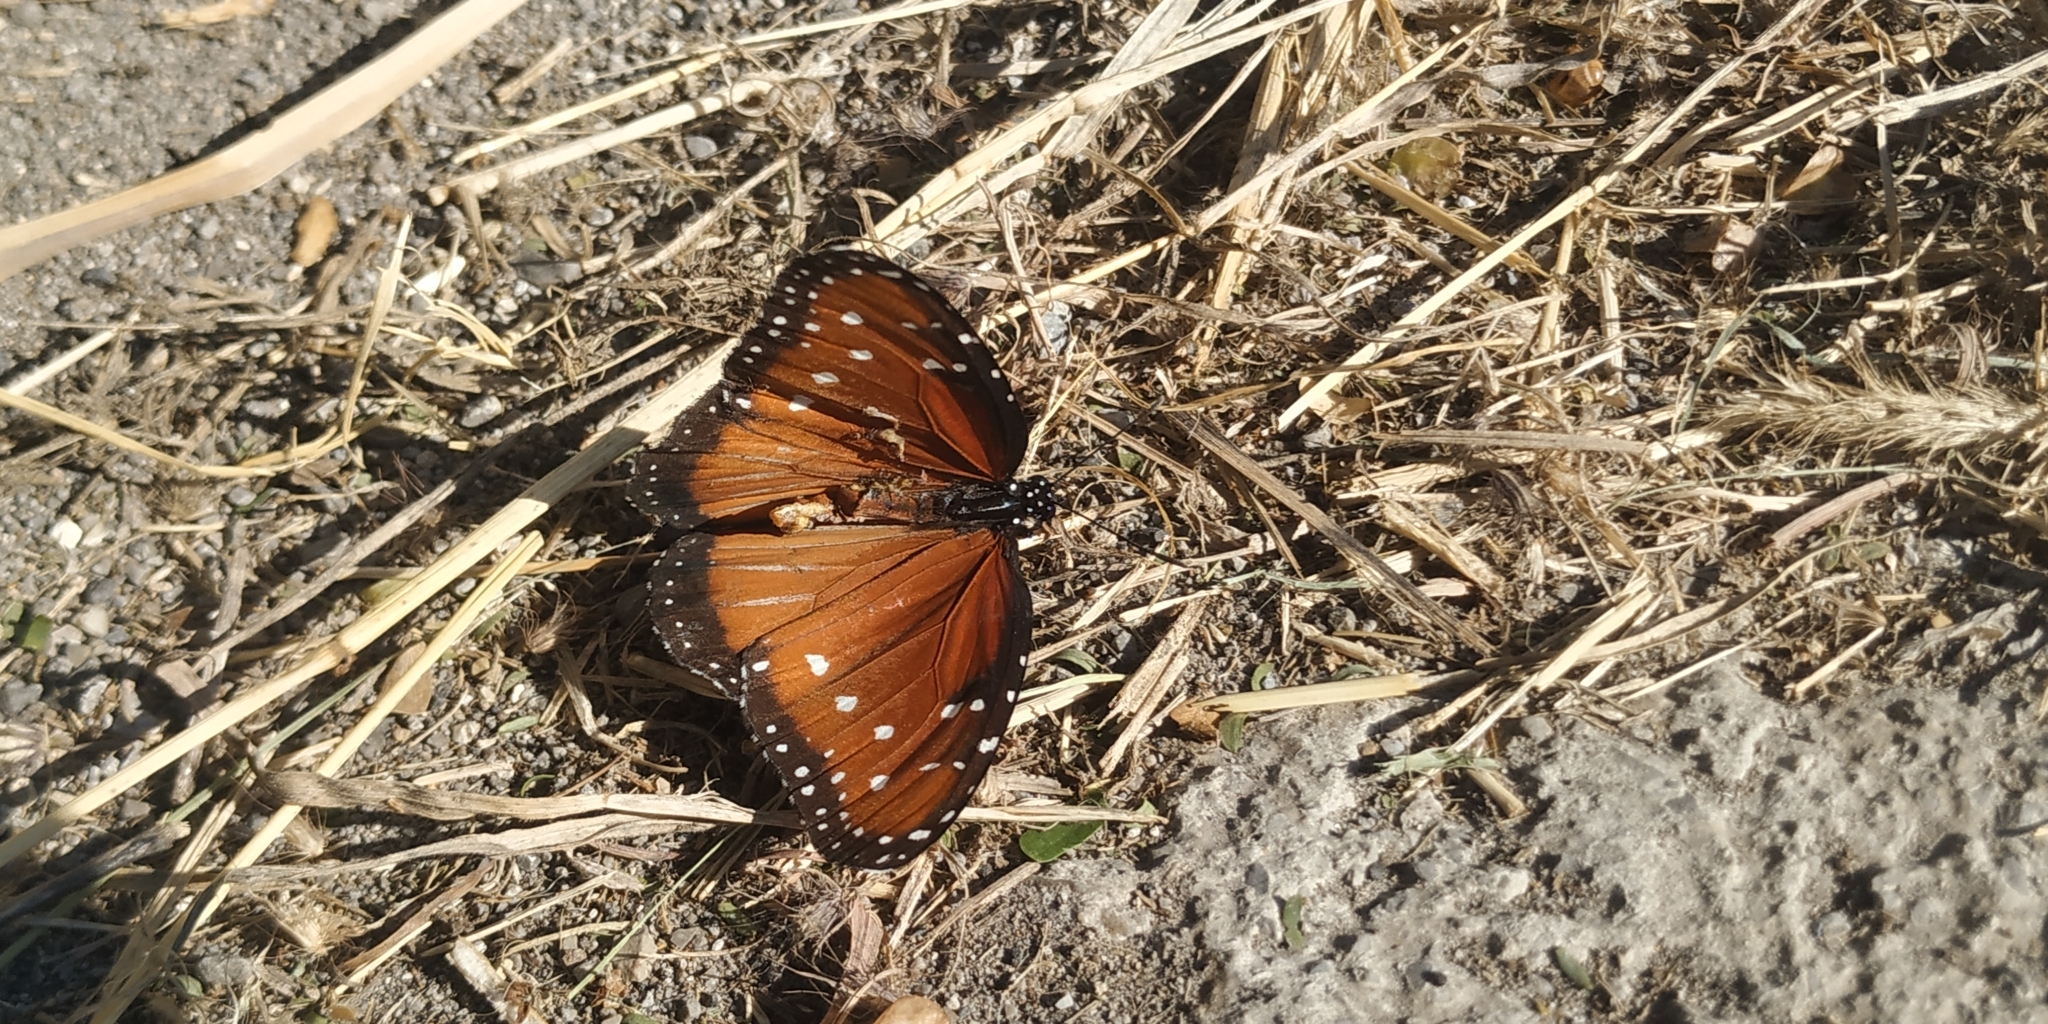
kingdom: Animalia
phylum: Arthropoda
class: Insecta
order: Lepidoptera
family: Nymphalidae
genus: Danaus
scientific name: Danaus gilippus
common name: Queen
